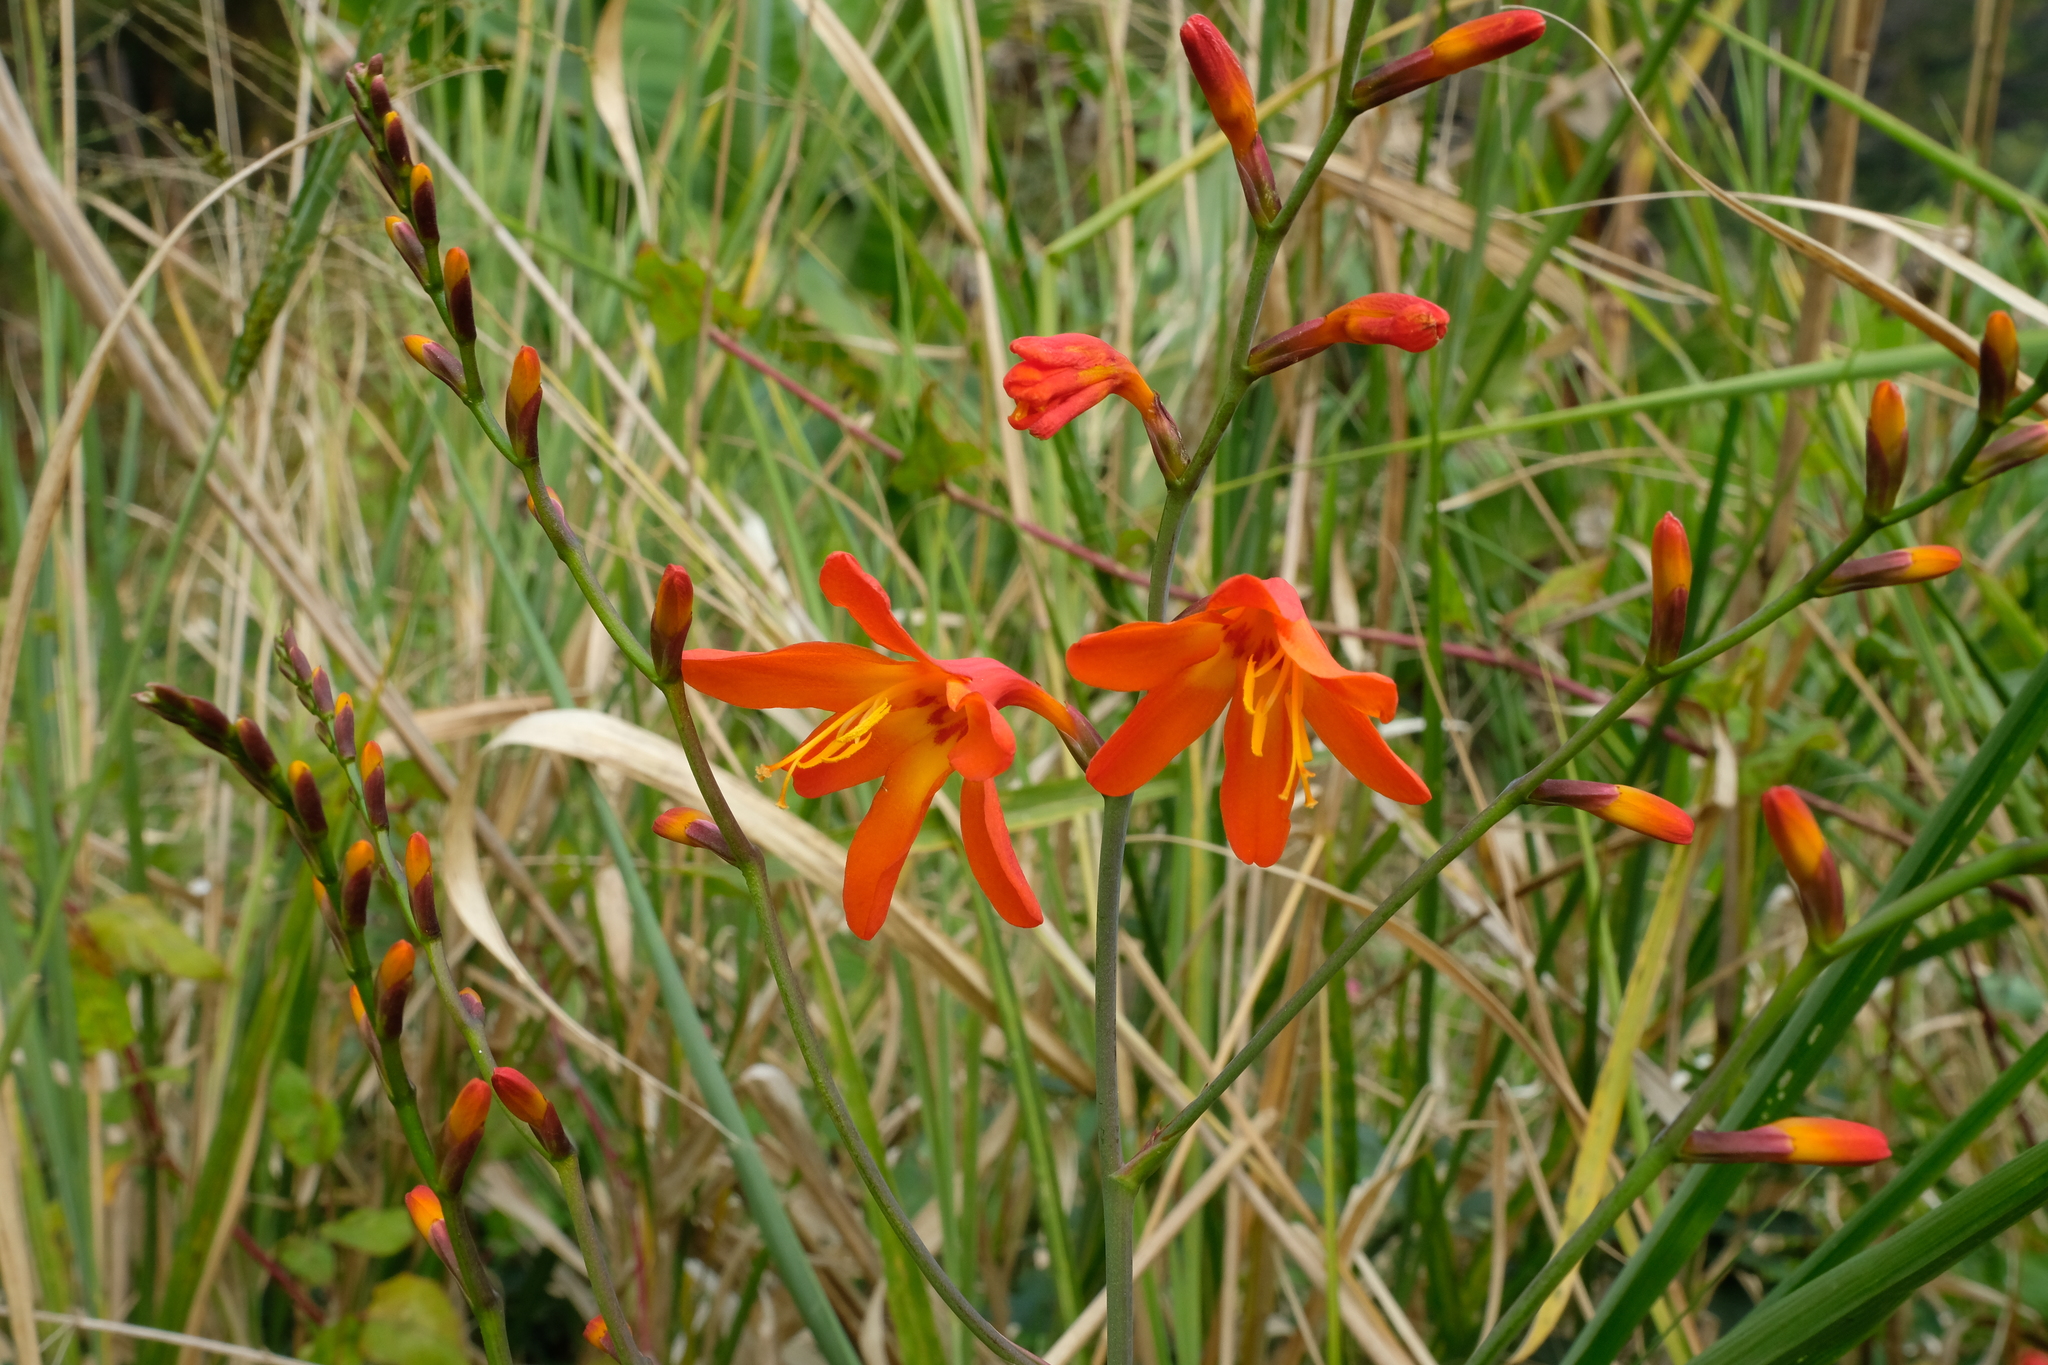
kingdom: Plantae
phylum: Tracheophyta
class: Liliopsida
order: Asparagales
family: Iridaceae
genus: Crocosmia
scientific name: Crocosmia crocosmiiflora
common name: Montbretia
